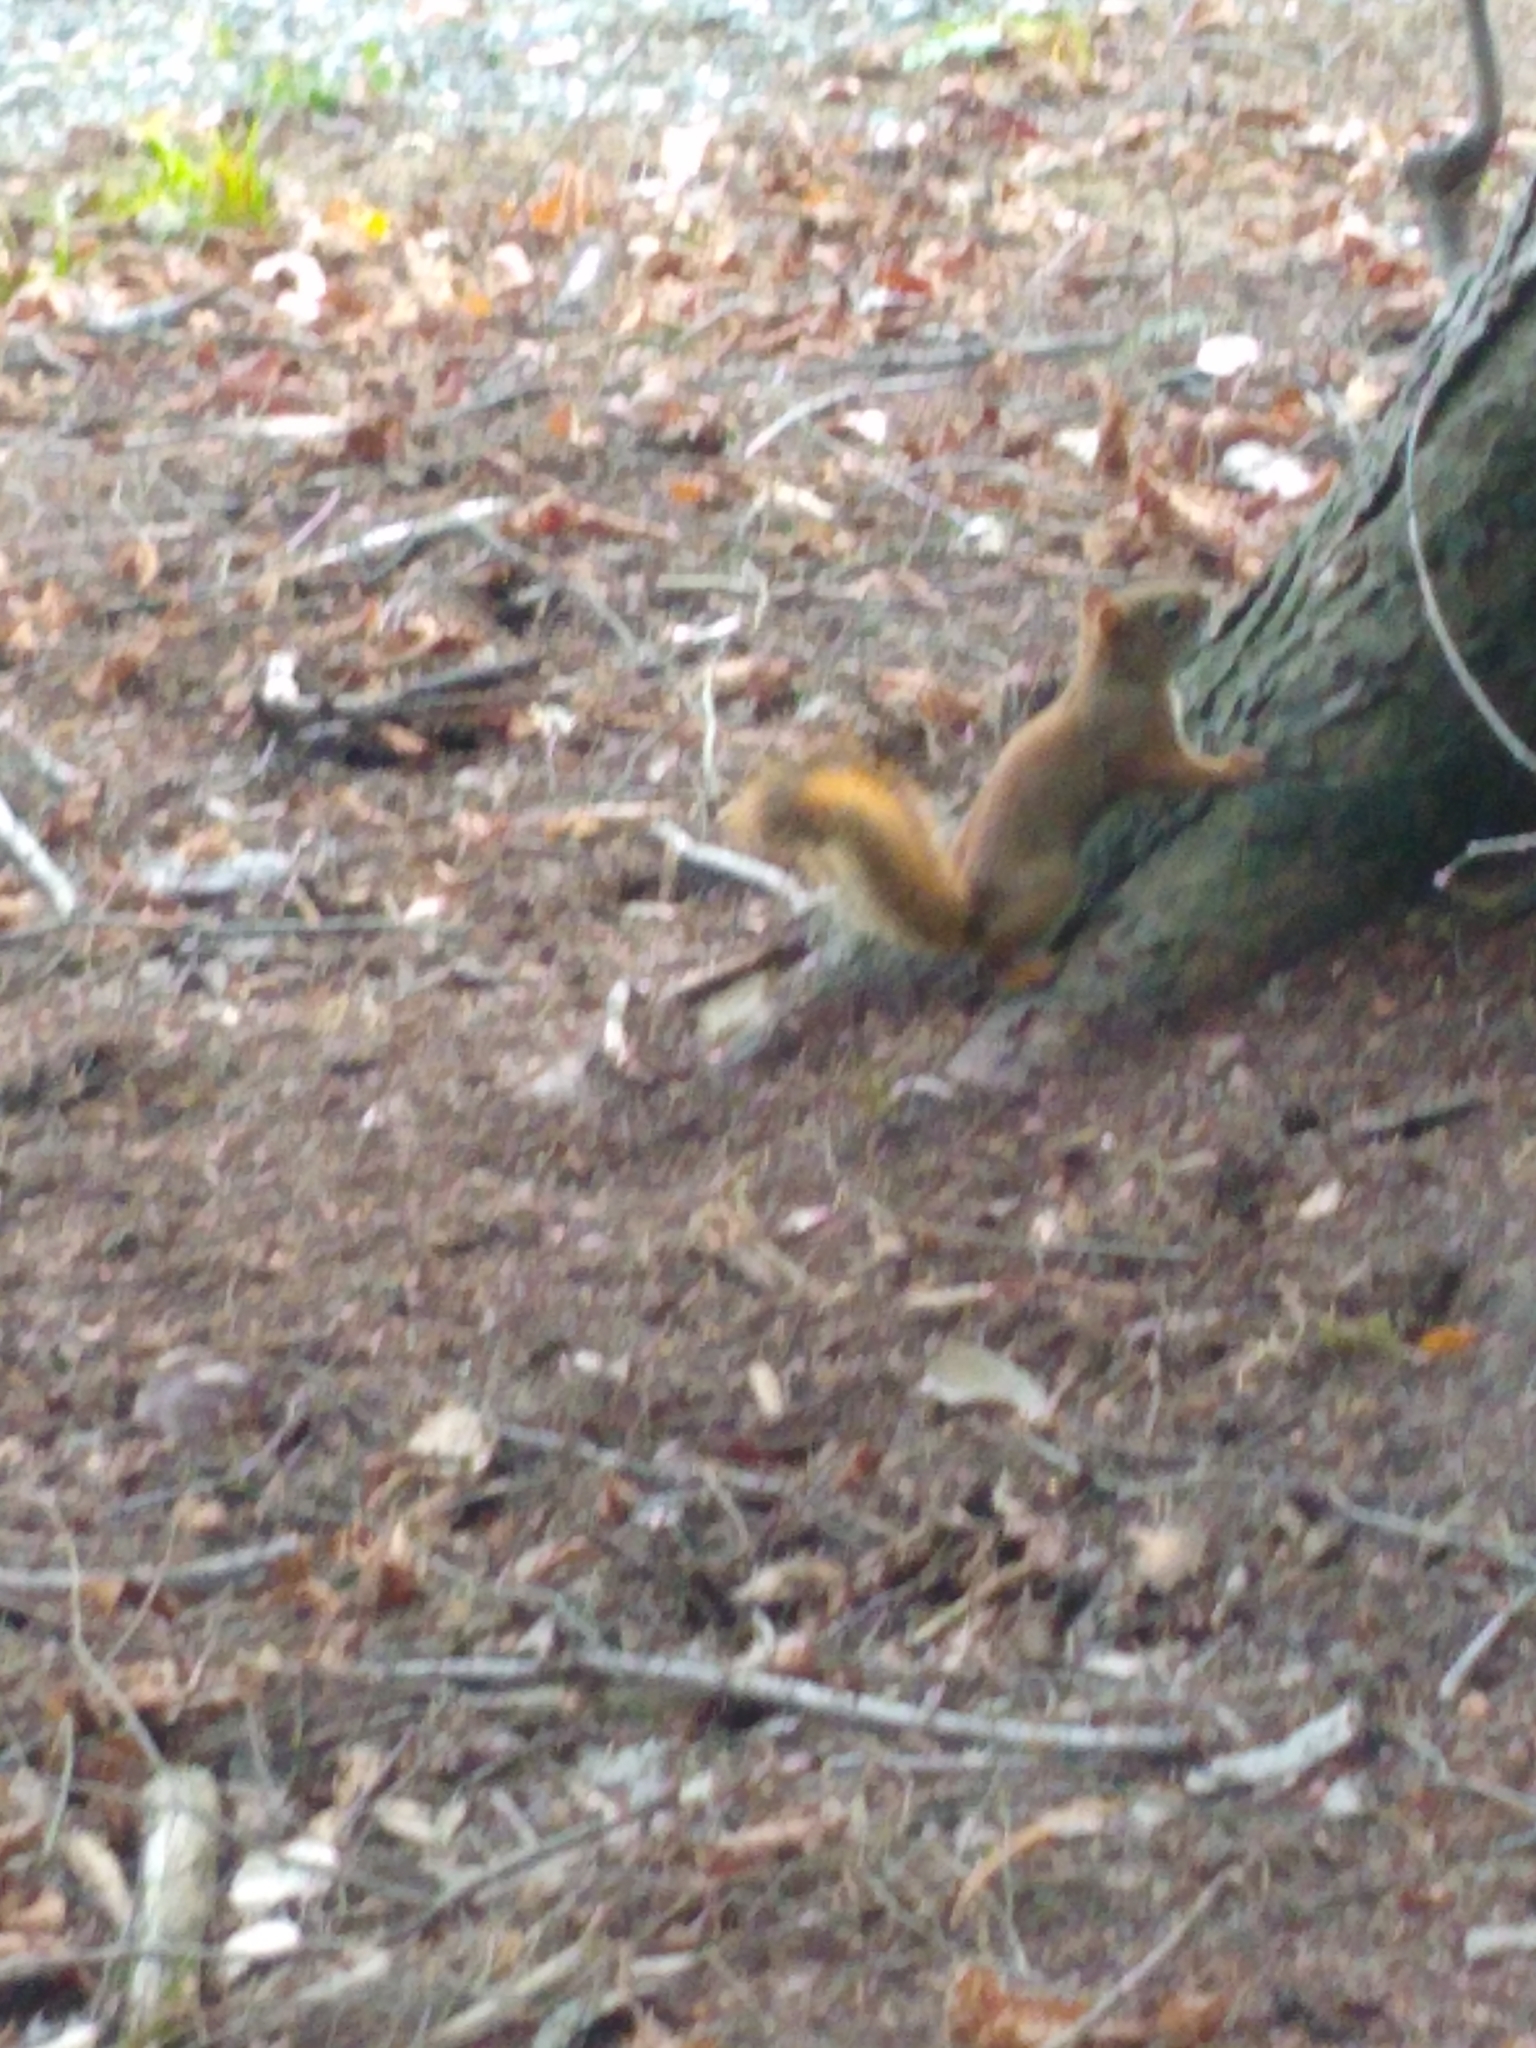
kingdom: Animalia
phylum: Chordata
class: Mammalia
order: Rodentia
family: Sciuridae
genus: Tamiasciurus
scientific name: Tamiasciurus hudsonicus
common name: Red squirrel
